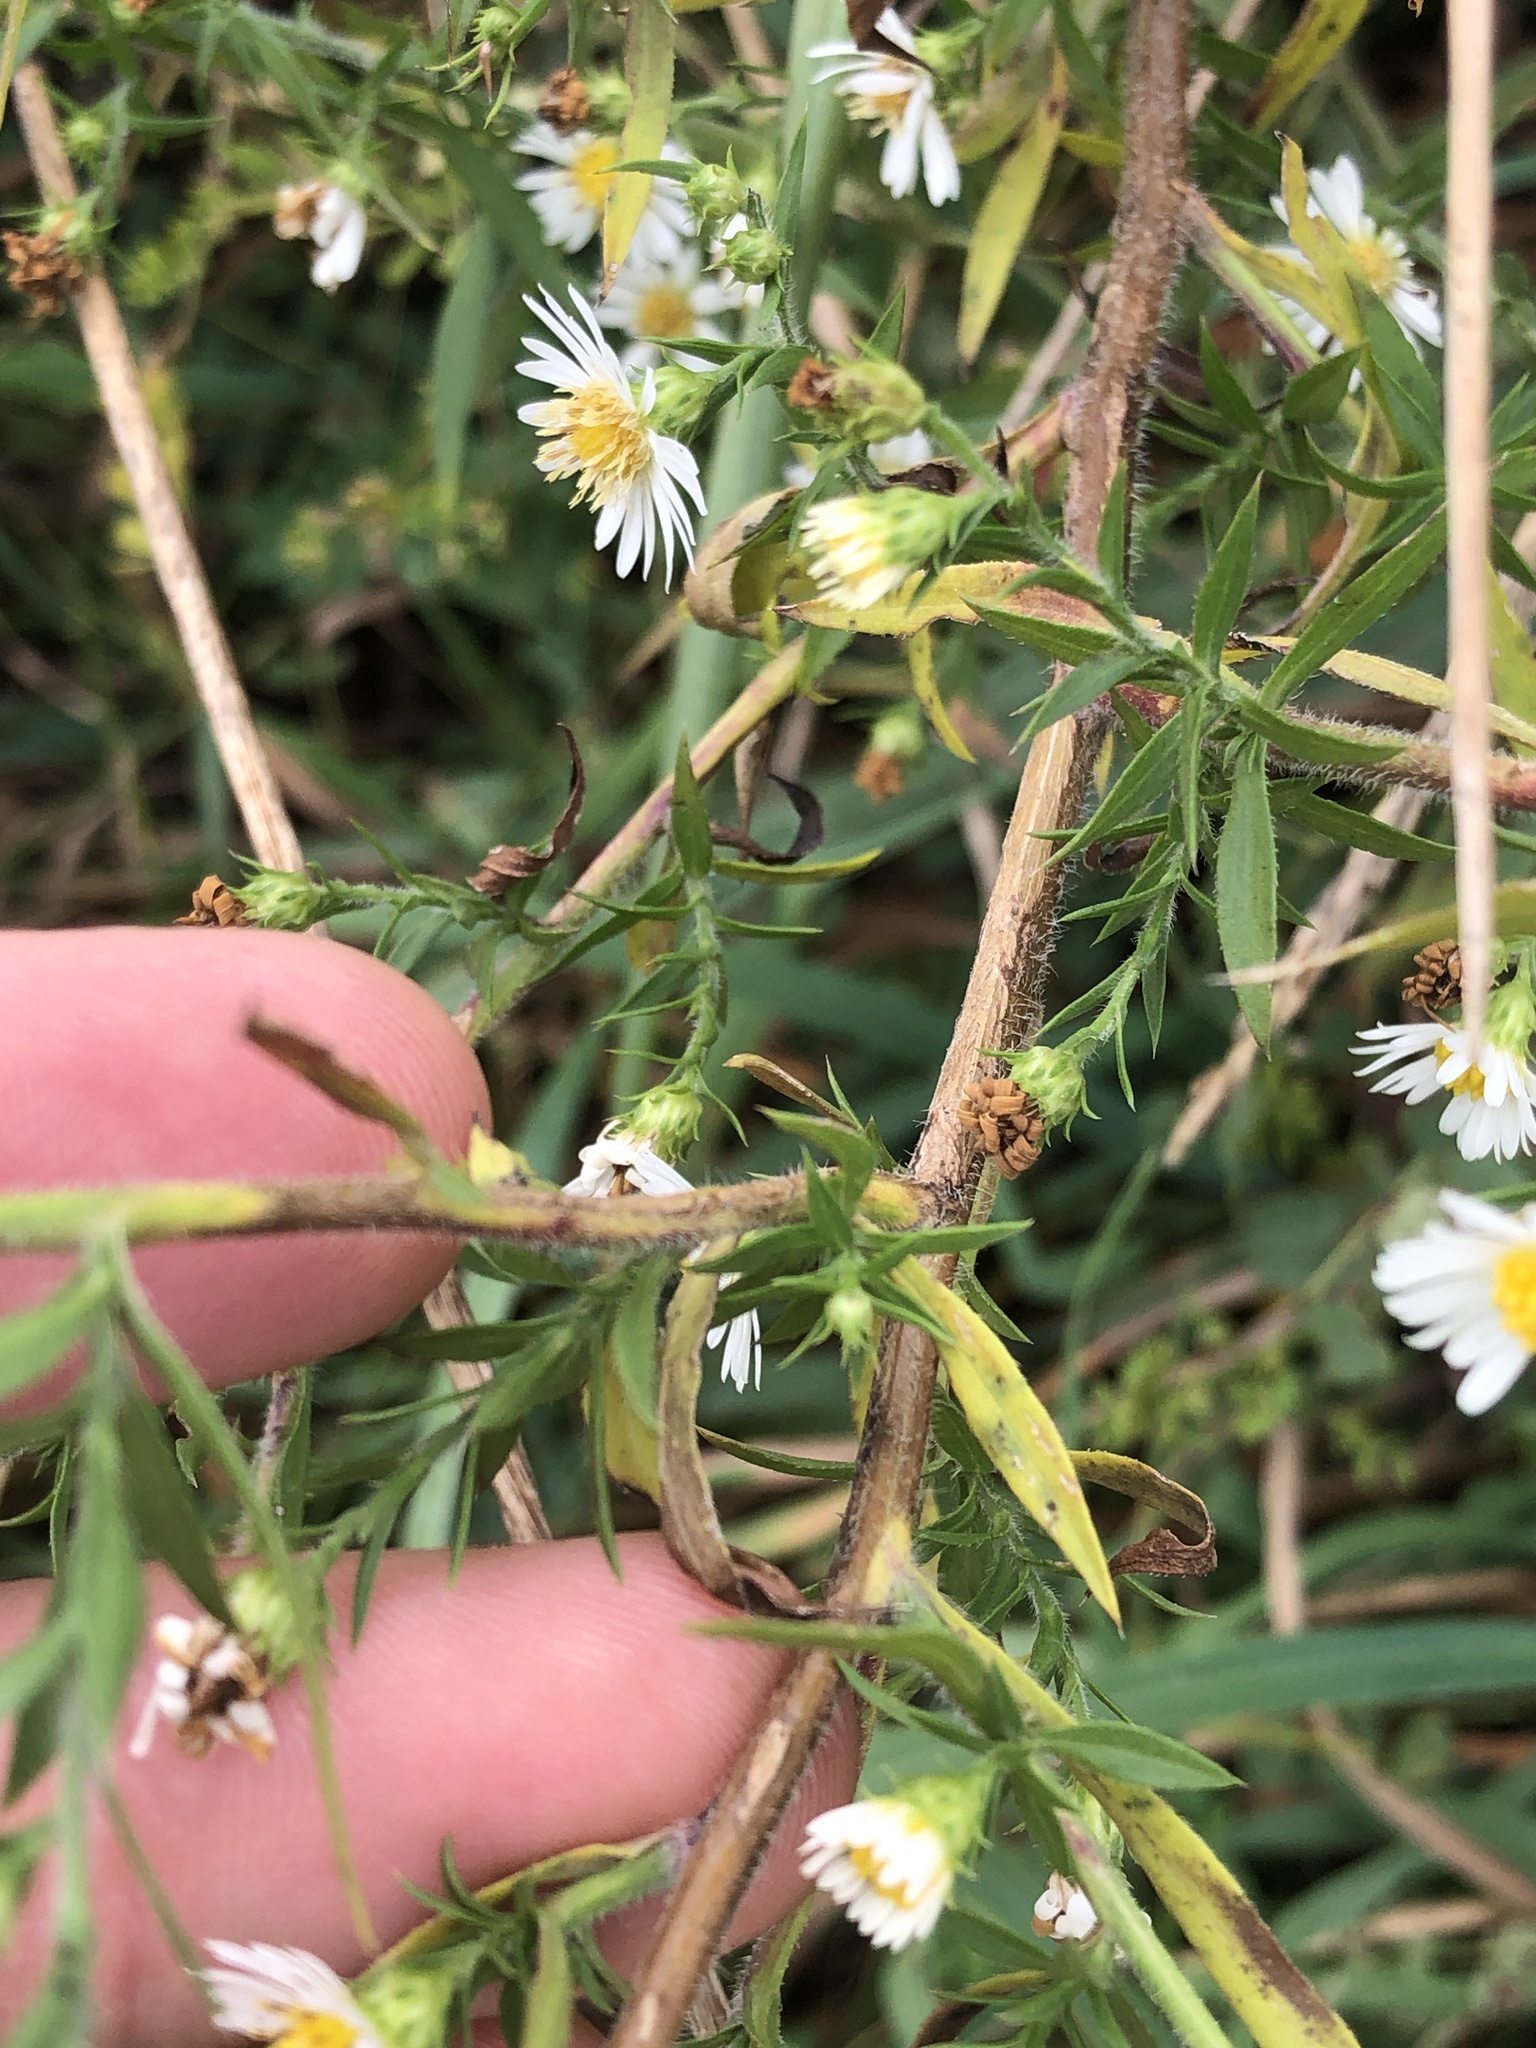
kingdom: Plantae
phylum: Tracheophyta
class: Magnoliopsida
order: Asterales
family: Asteraceae
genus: Symphyotrichum
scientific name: Symphyotrichum pilosum
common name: Awl aster
